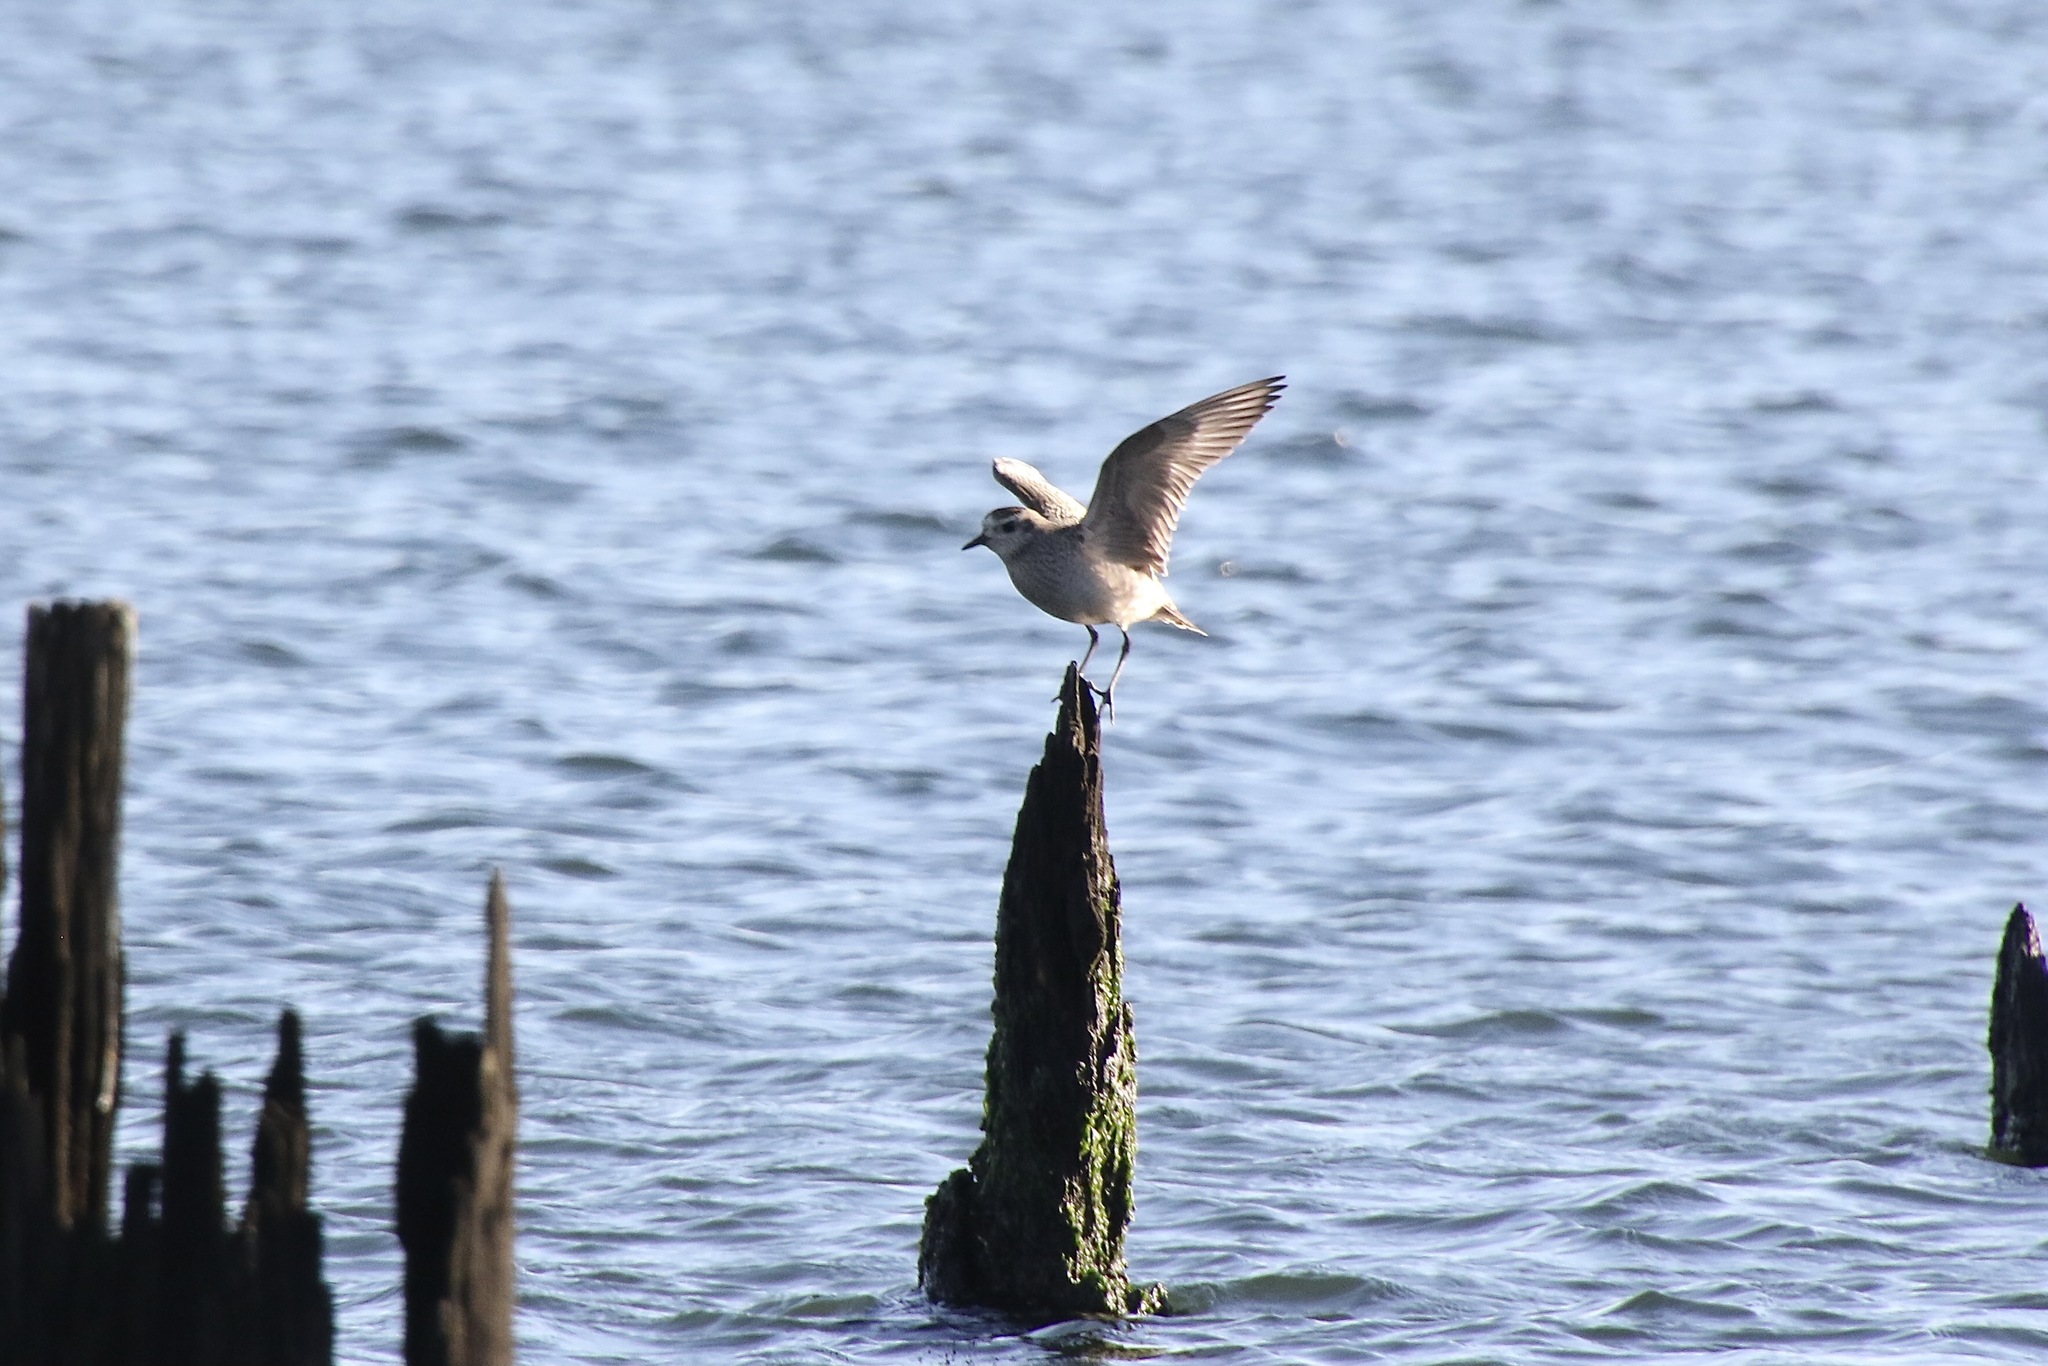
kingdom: Animalia
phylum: Chordata
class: Aves
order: Charadriiformes
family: Charadriidae
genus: Pluvialis
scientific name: Pluvialis dominica
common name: American golden plover
